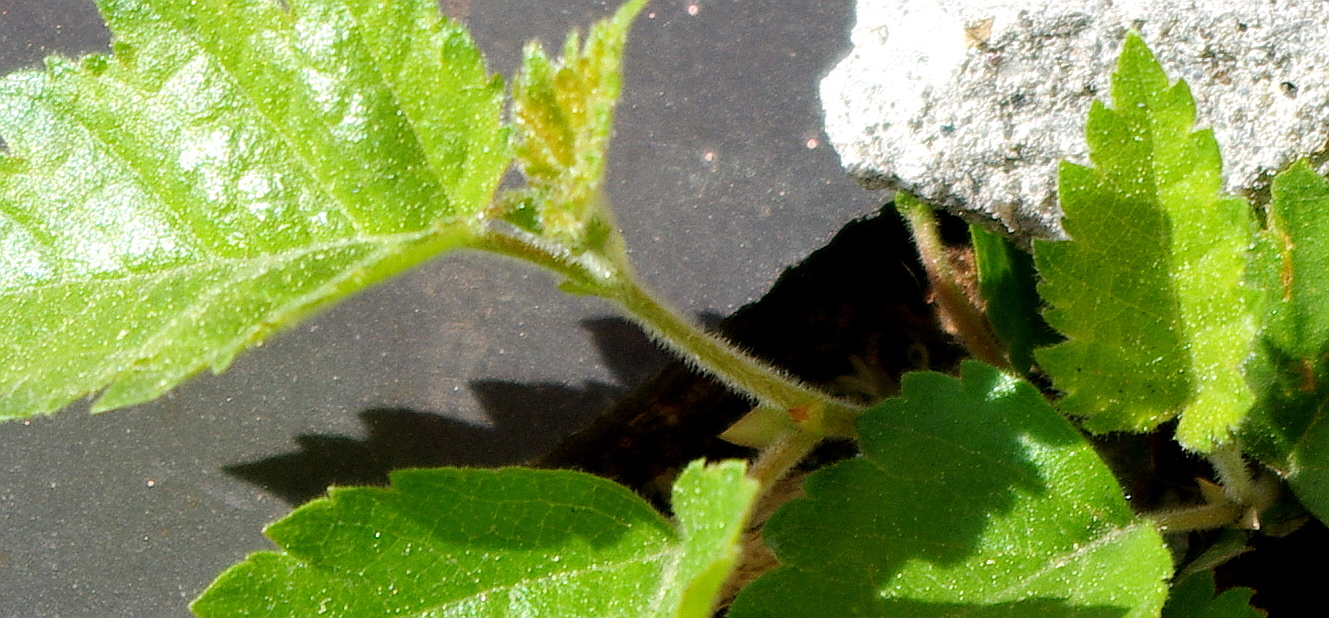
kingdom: Plantae
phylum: Tracheophyta
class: Magnoliopsida
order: Fagales
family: Betulaceae
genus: Betula
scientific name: Betula pubescens
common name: Downy birch
